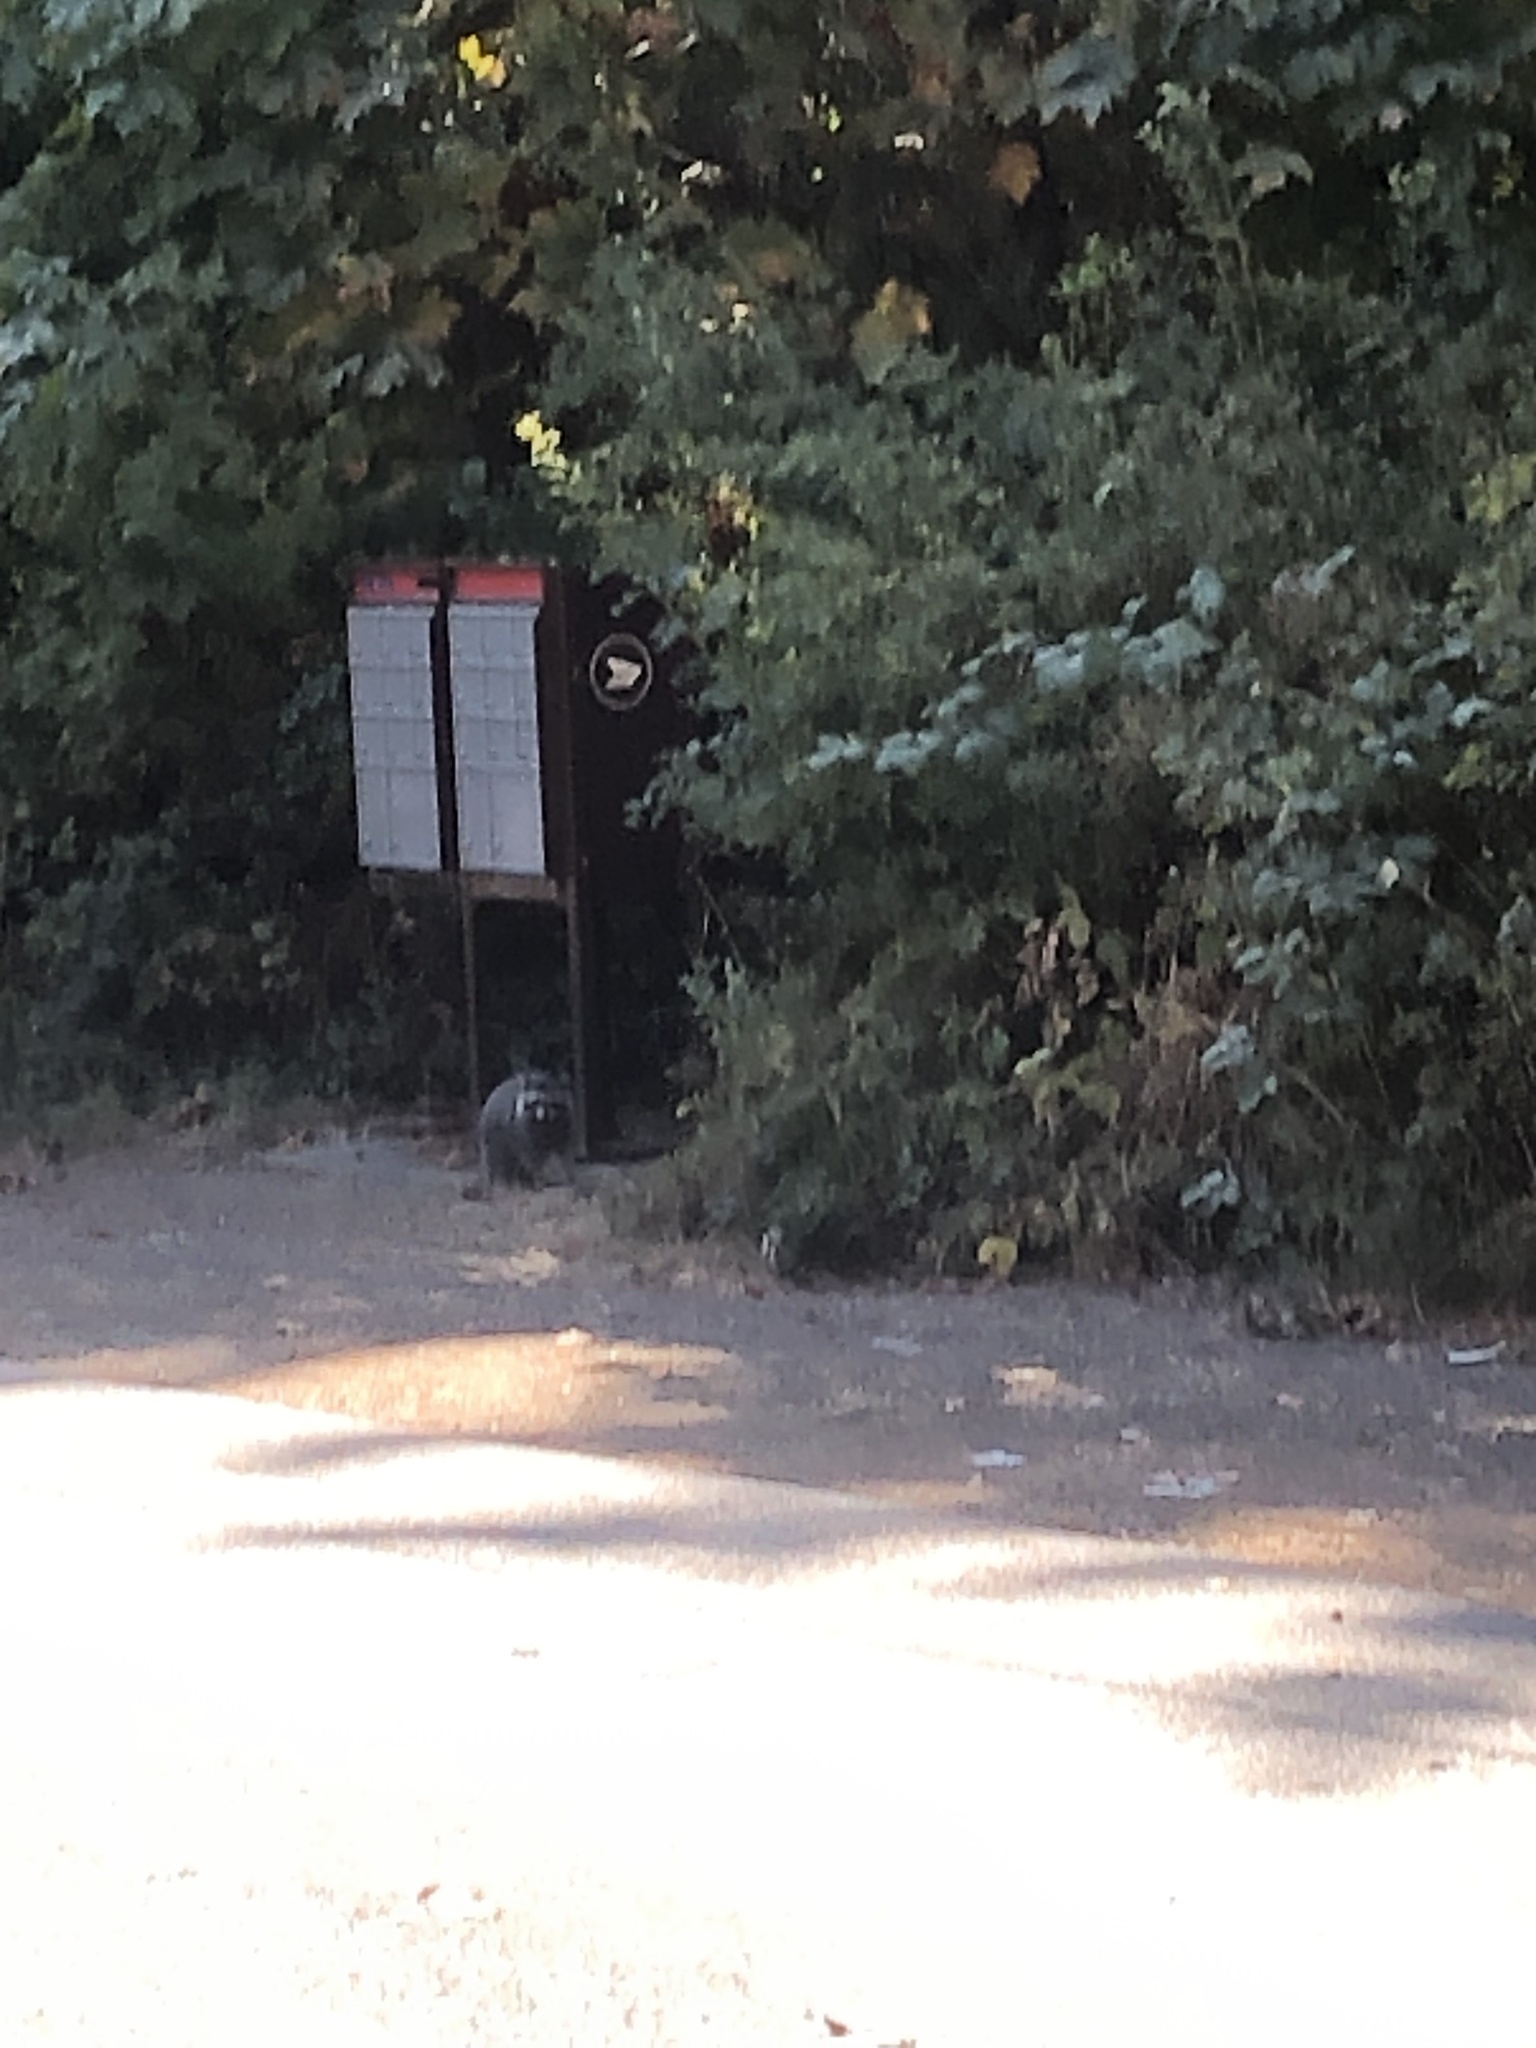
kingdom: Animalia
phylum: Chordata
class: Mammalia
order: Carnivora
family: Procyonidae
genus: Procyon
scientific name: Procyon lotor
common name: Raccoon
